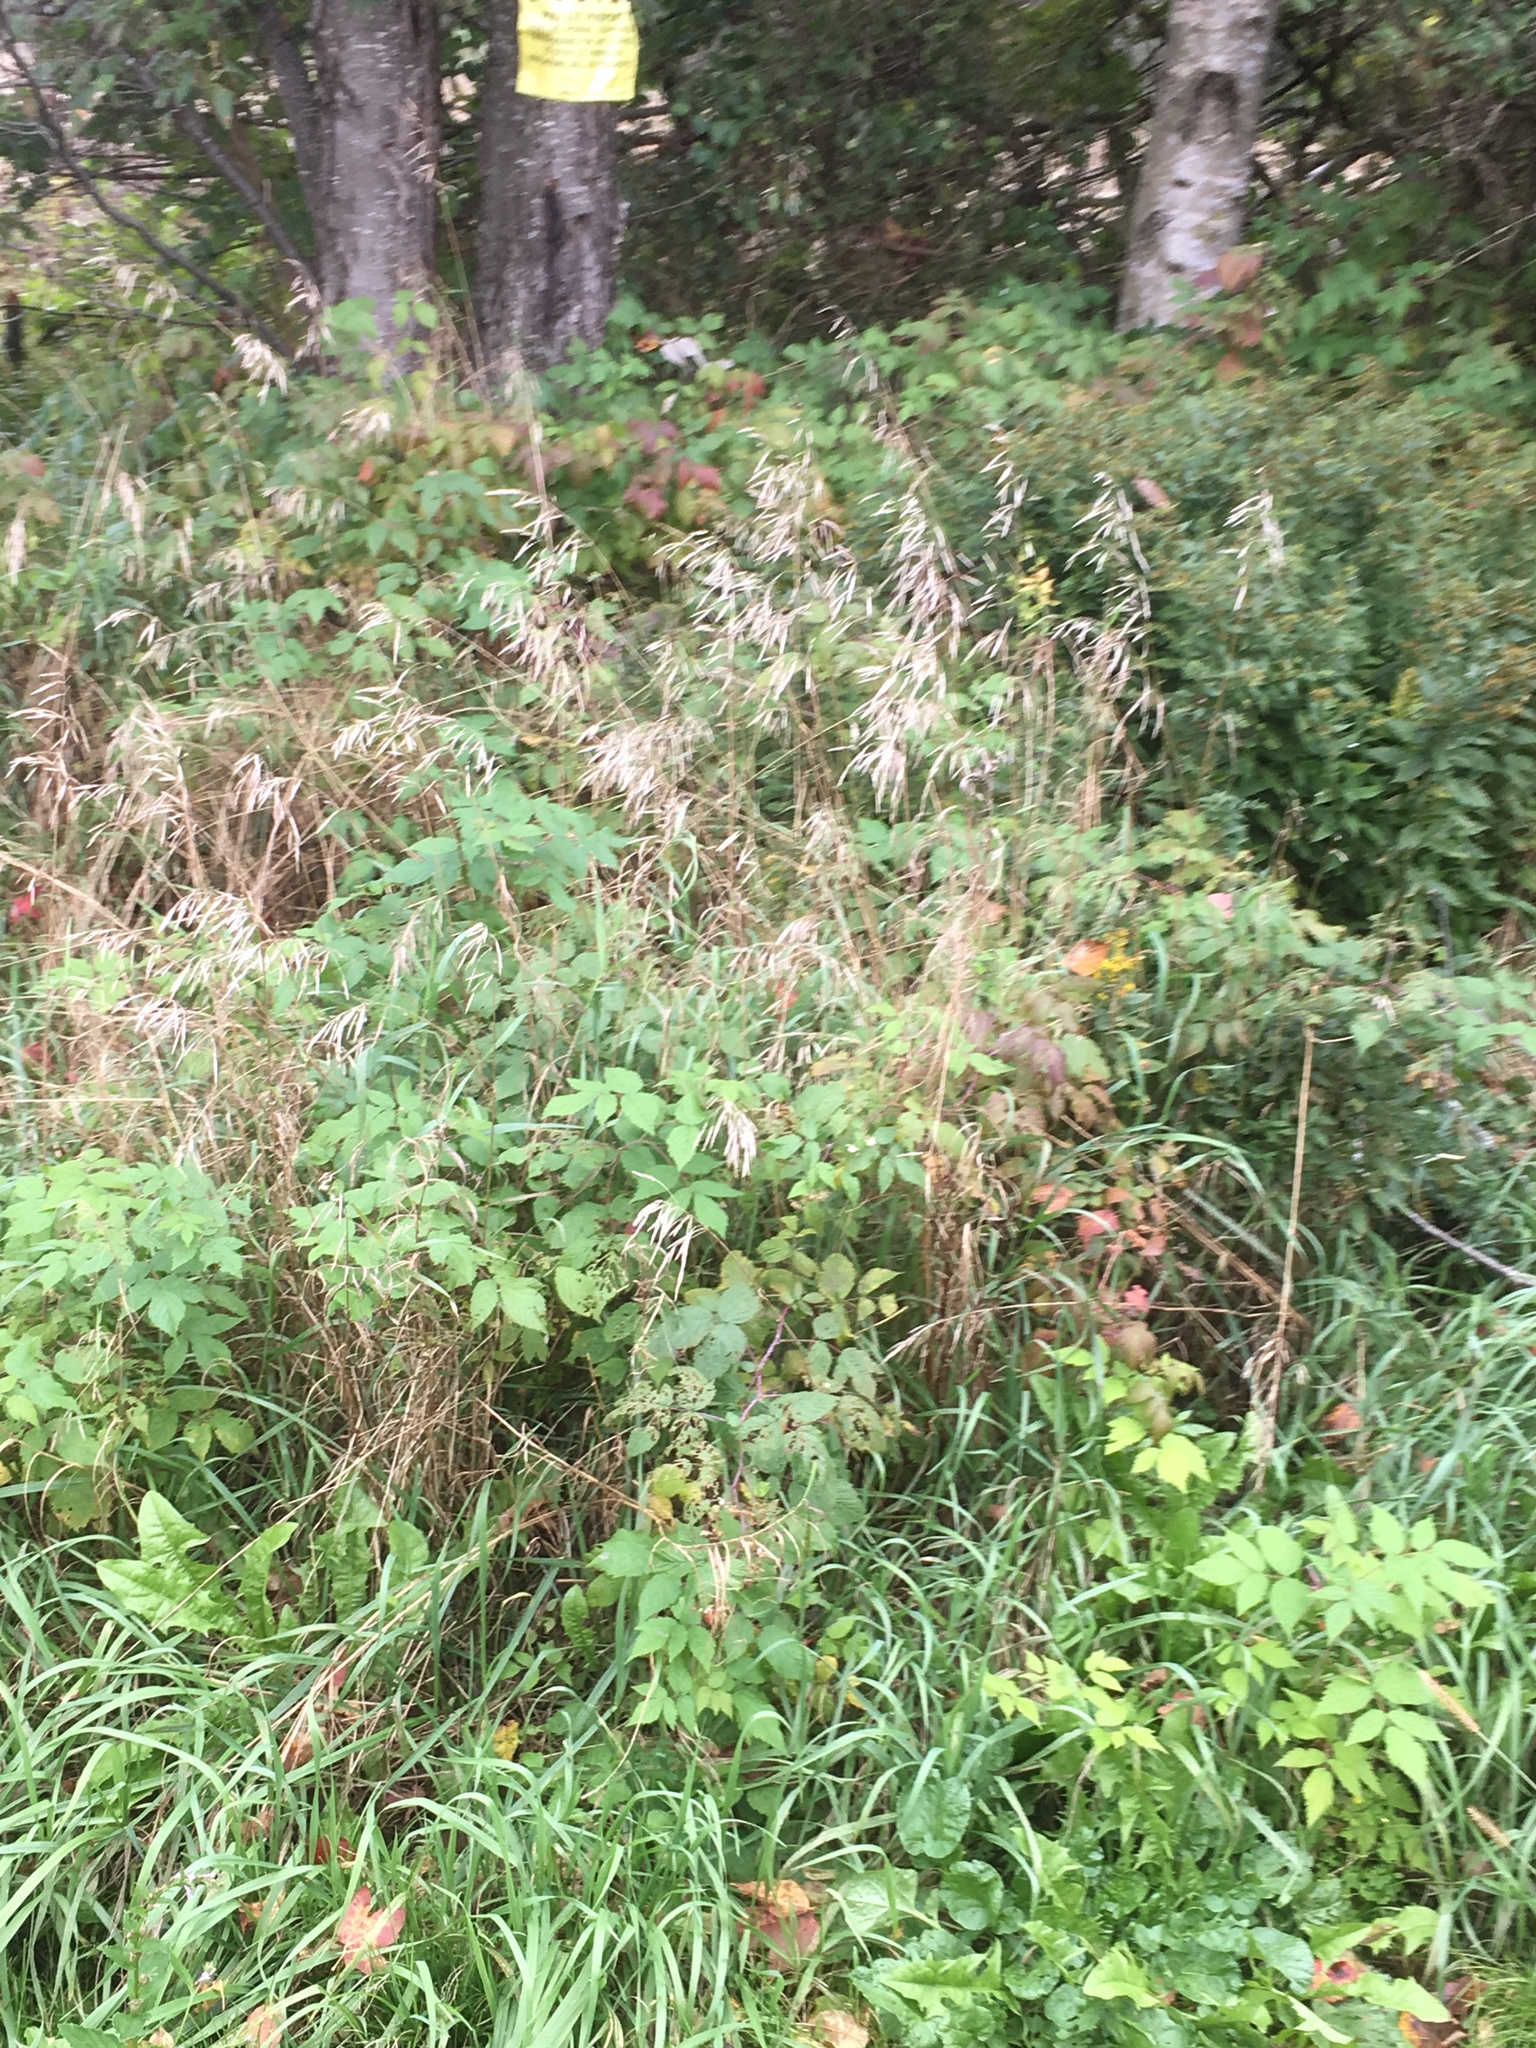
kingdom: Plantae
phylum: Tracheophyta
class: Liliopsida
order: Poales
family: Poaceae
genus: Bromus
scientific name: Bromus inermis
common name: Smooth brome
